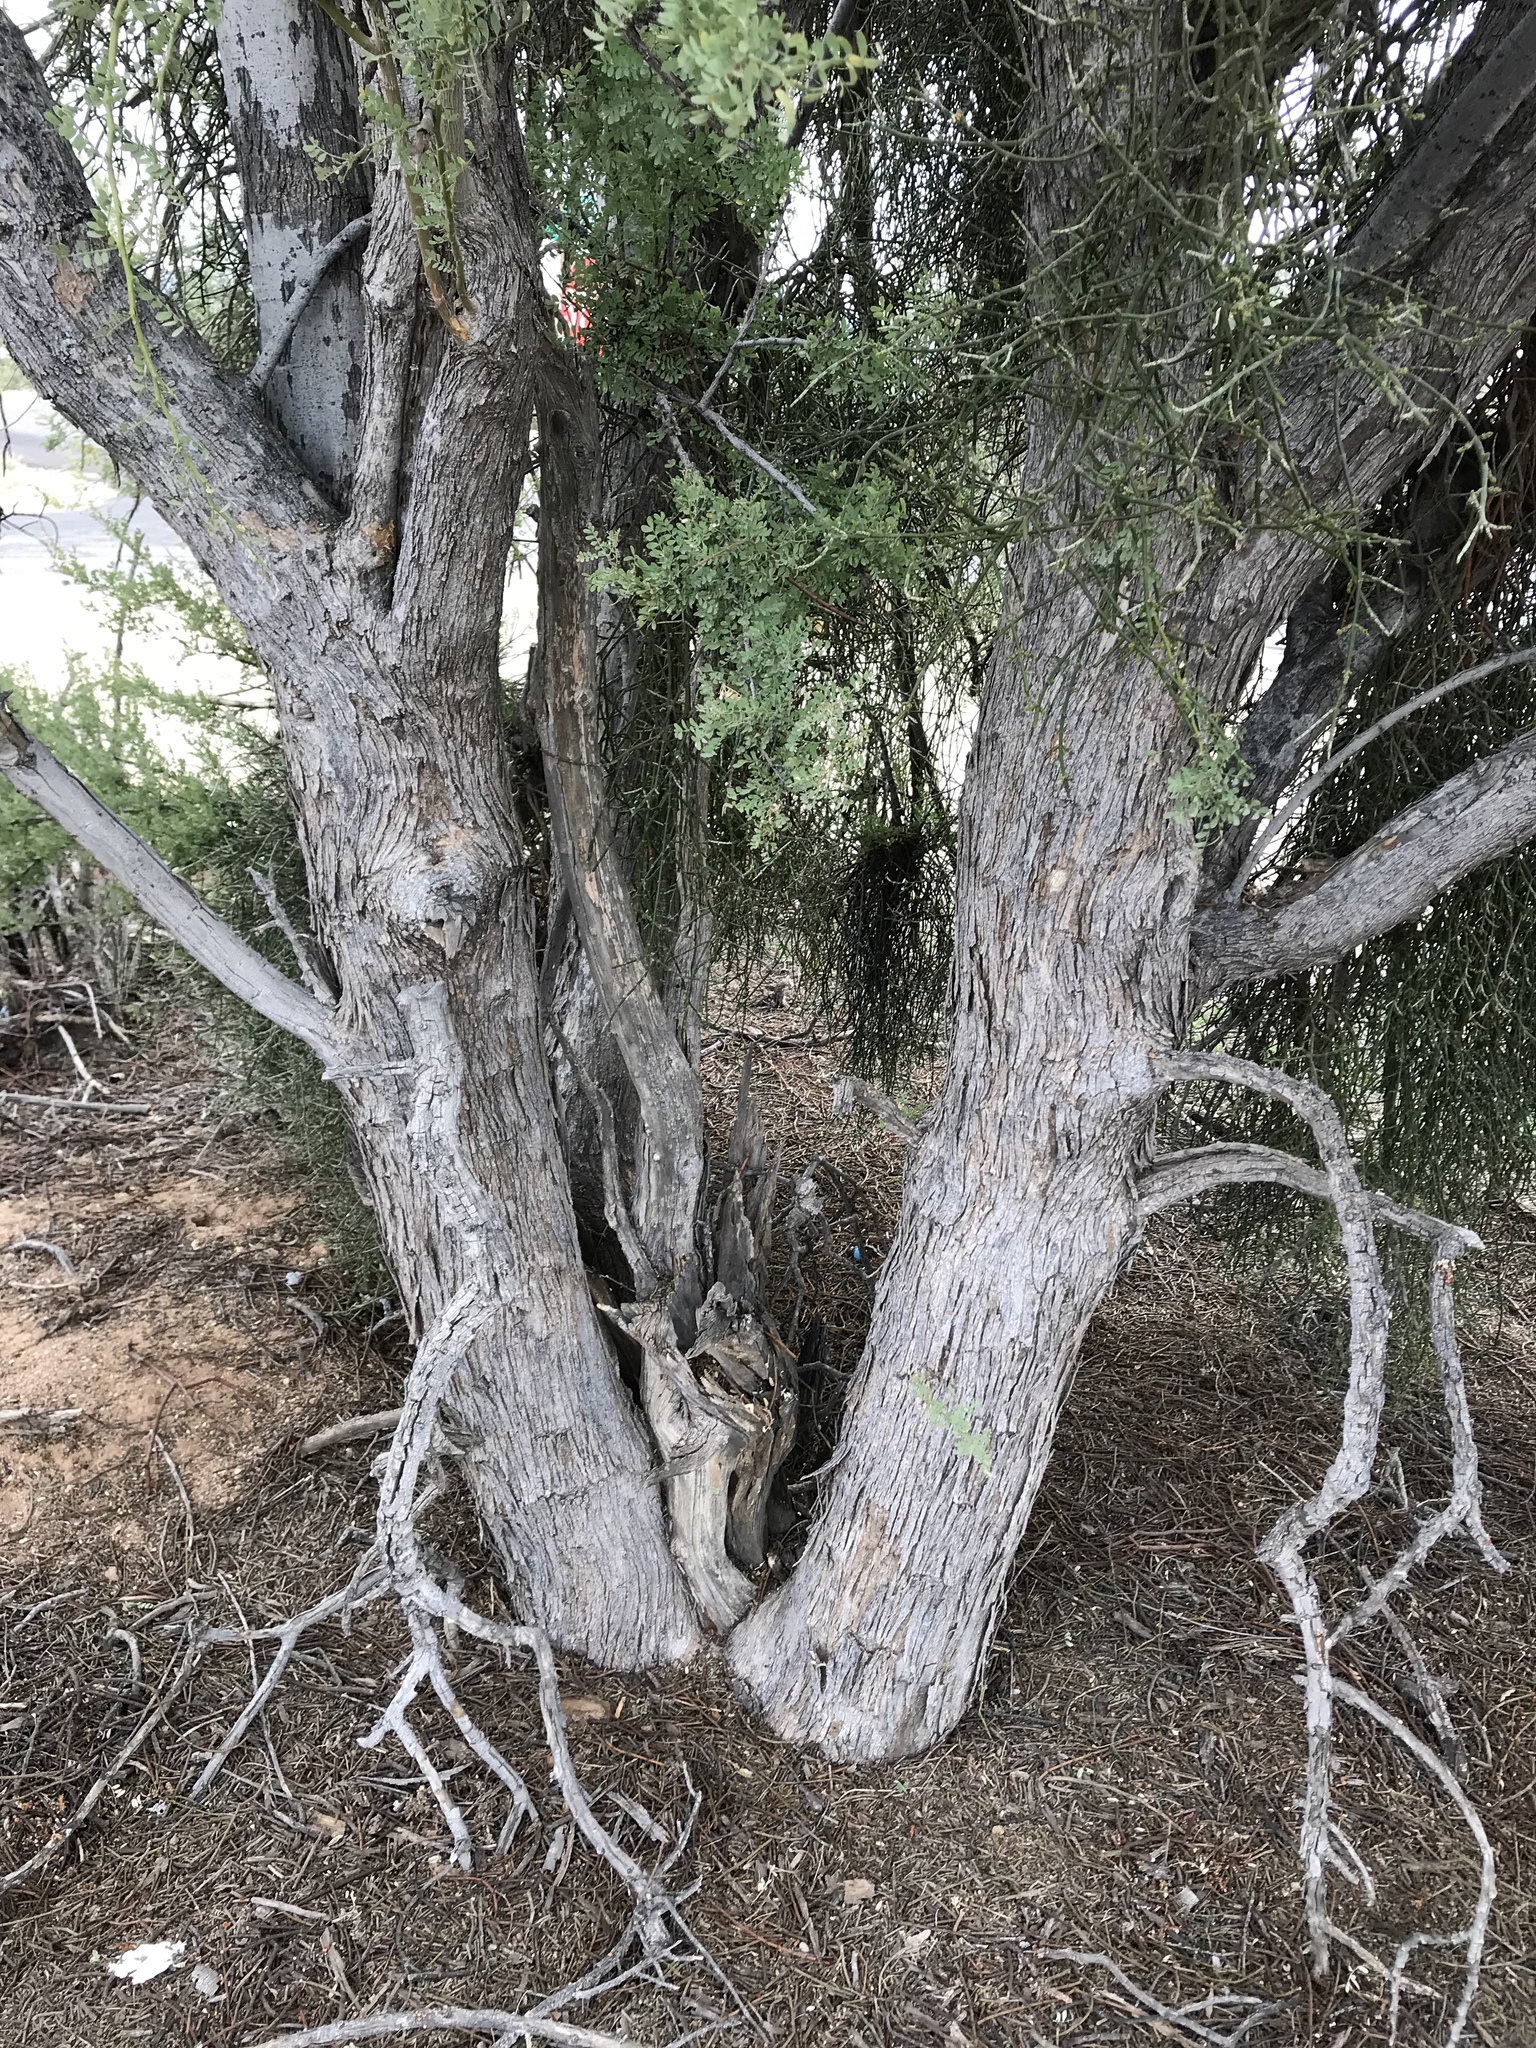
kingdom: Plantae
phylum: Tracheophyta
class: Magnoliopsida
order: Fabales
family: Fabaceae
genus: Olneya
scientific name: Olneya tesota
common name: Desert ironwood
